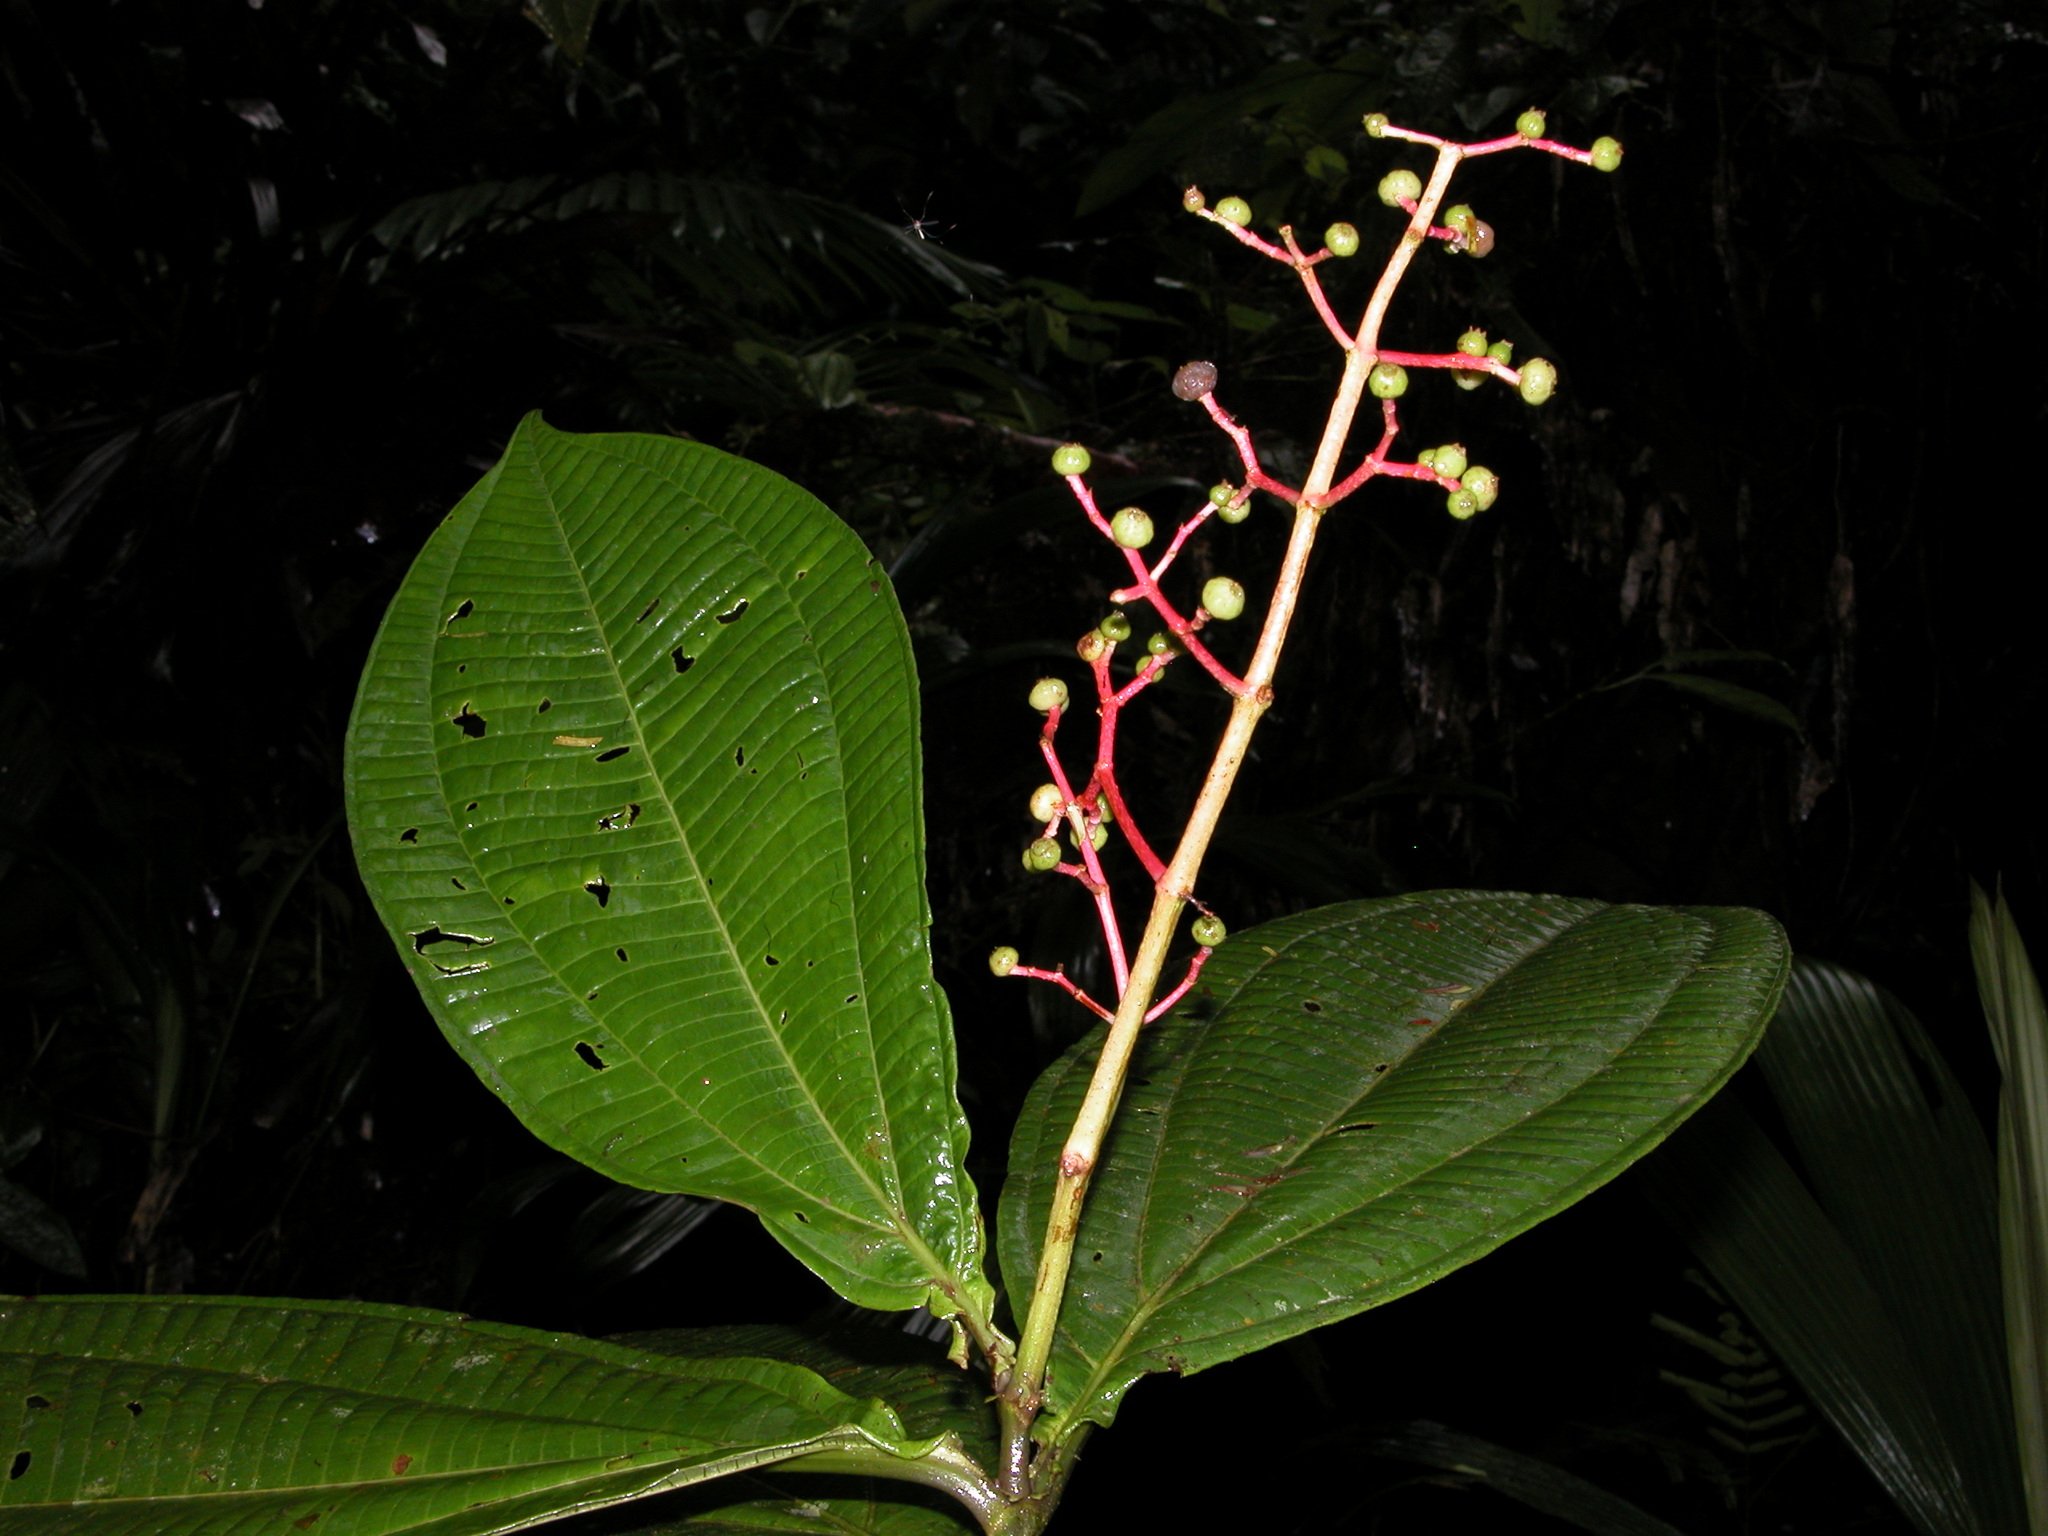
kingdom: Plantae
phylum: Tracheophyta
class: Magnoliopsida
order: Myrtales
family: Melastomataceae
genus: Miconia
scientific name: Miconia appendiculata
